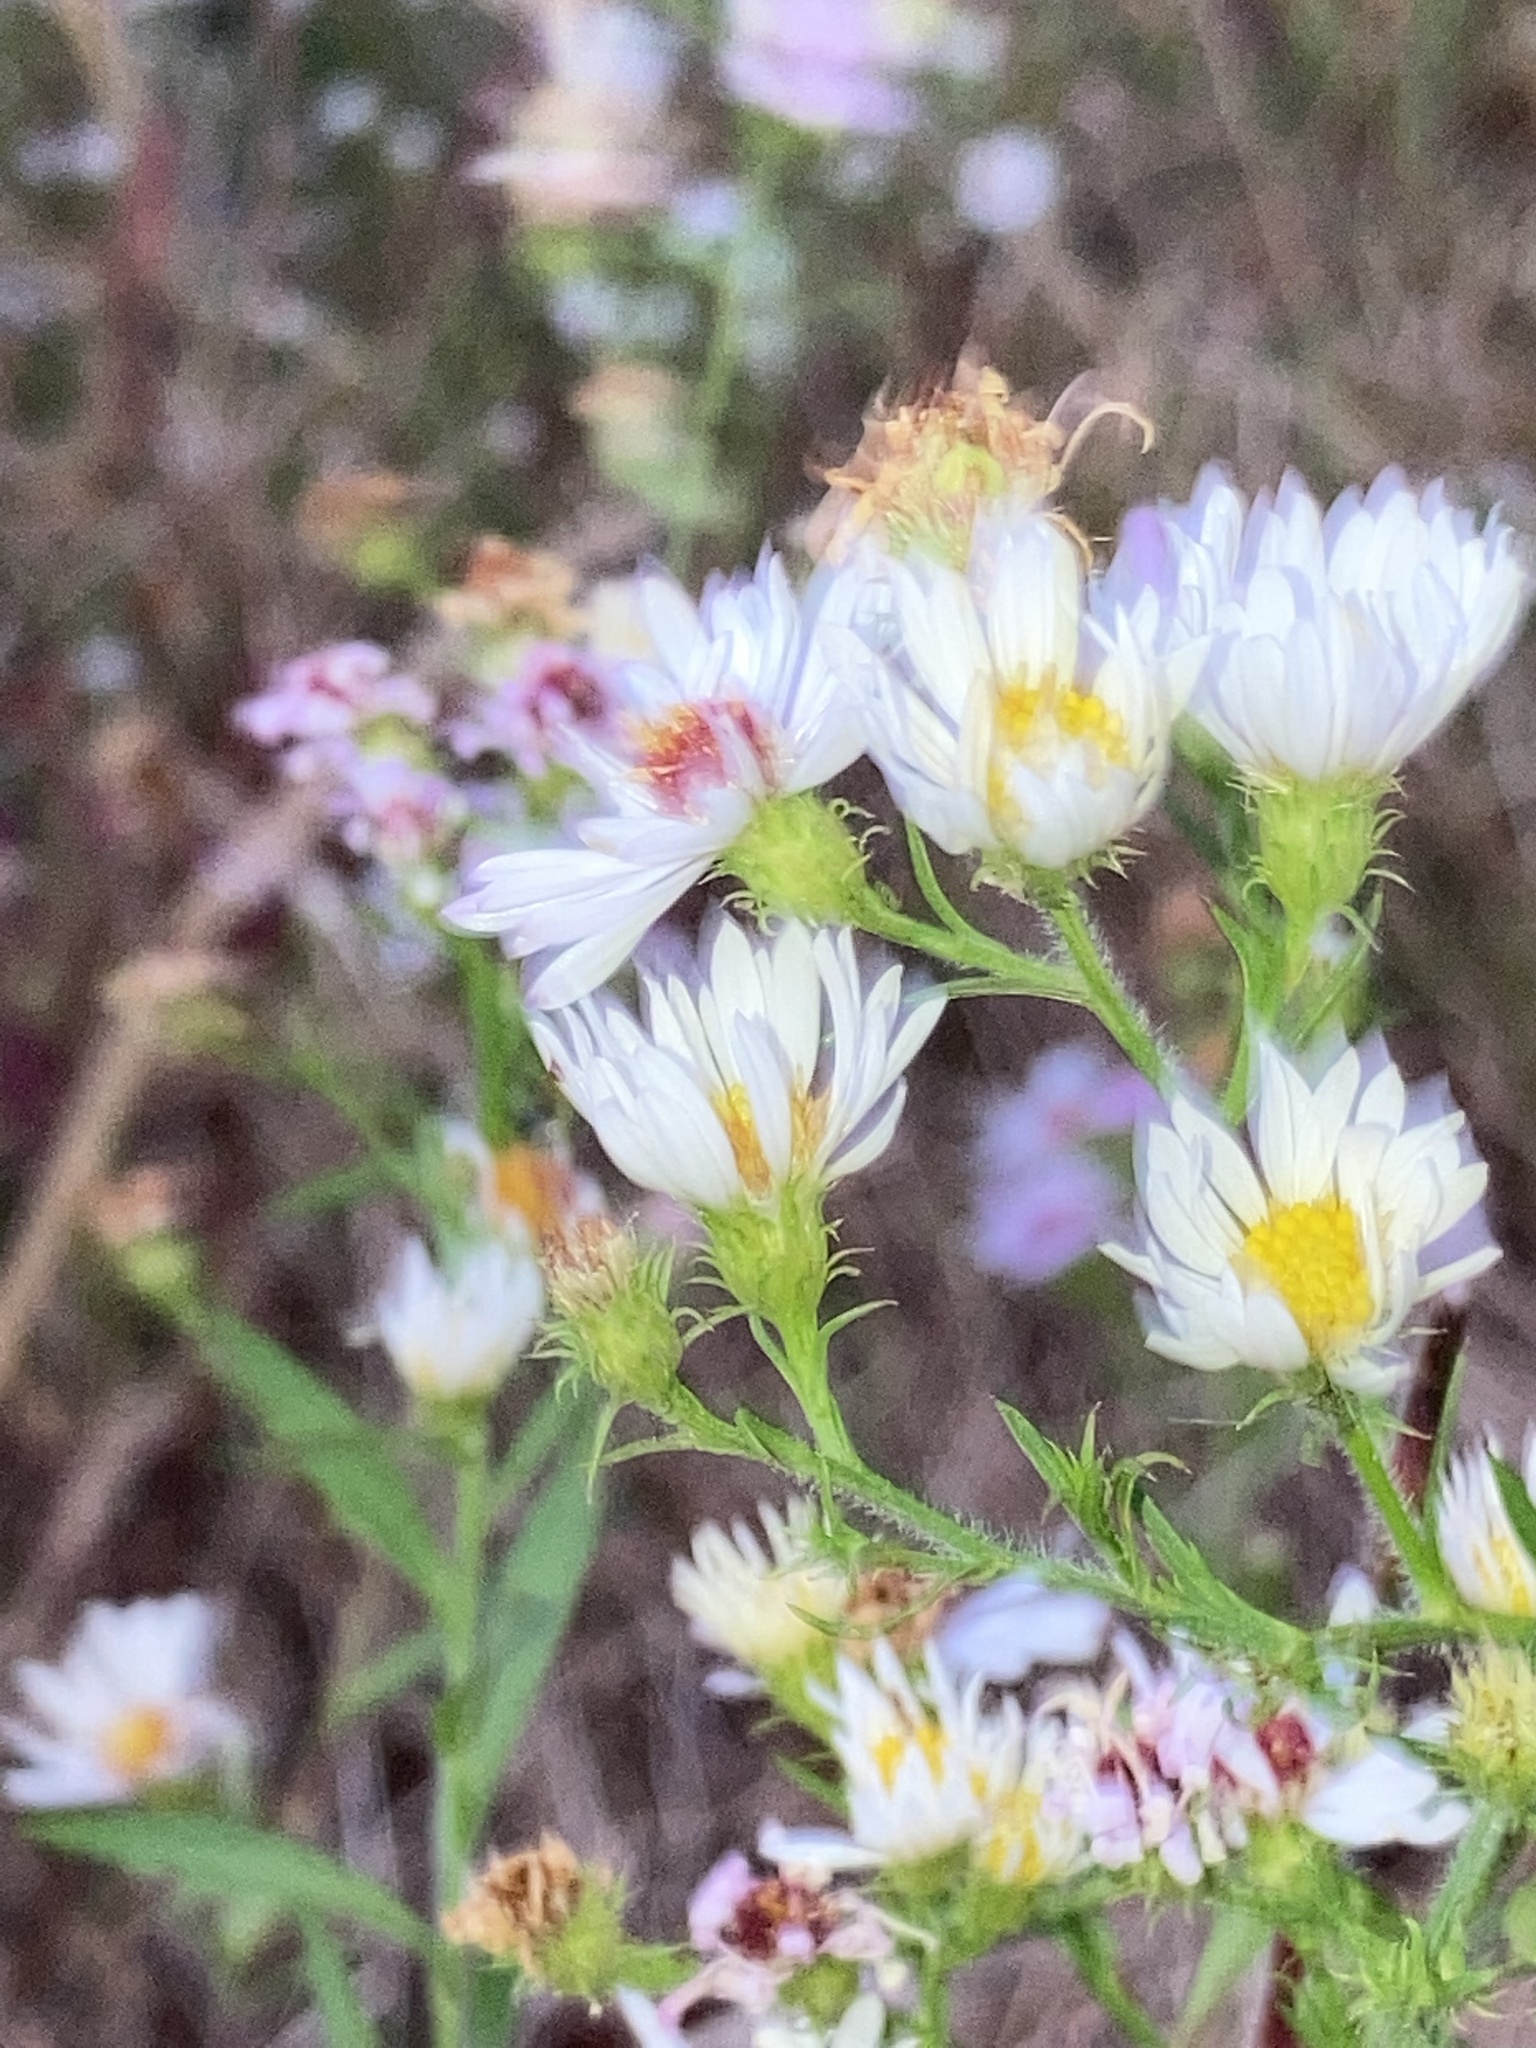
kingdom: Plantae
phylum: Tracheophyta
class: Magnoliopsida
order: Asterales
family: Asteraceae
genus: Symphyotrichum
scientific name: Symphyotrichum pilosum
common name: Awl aster
